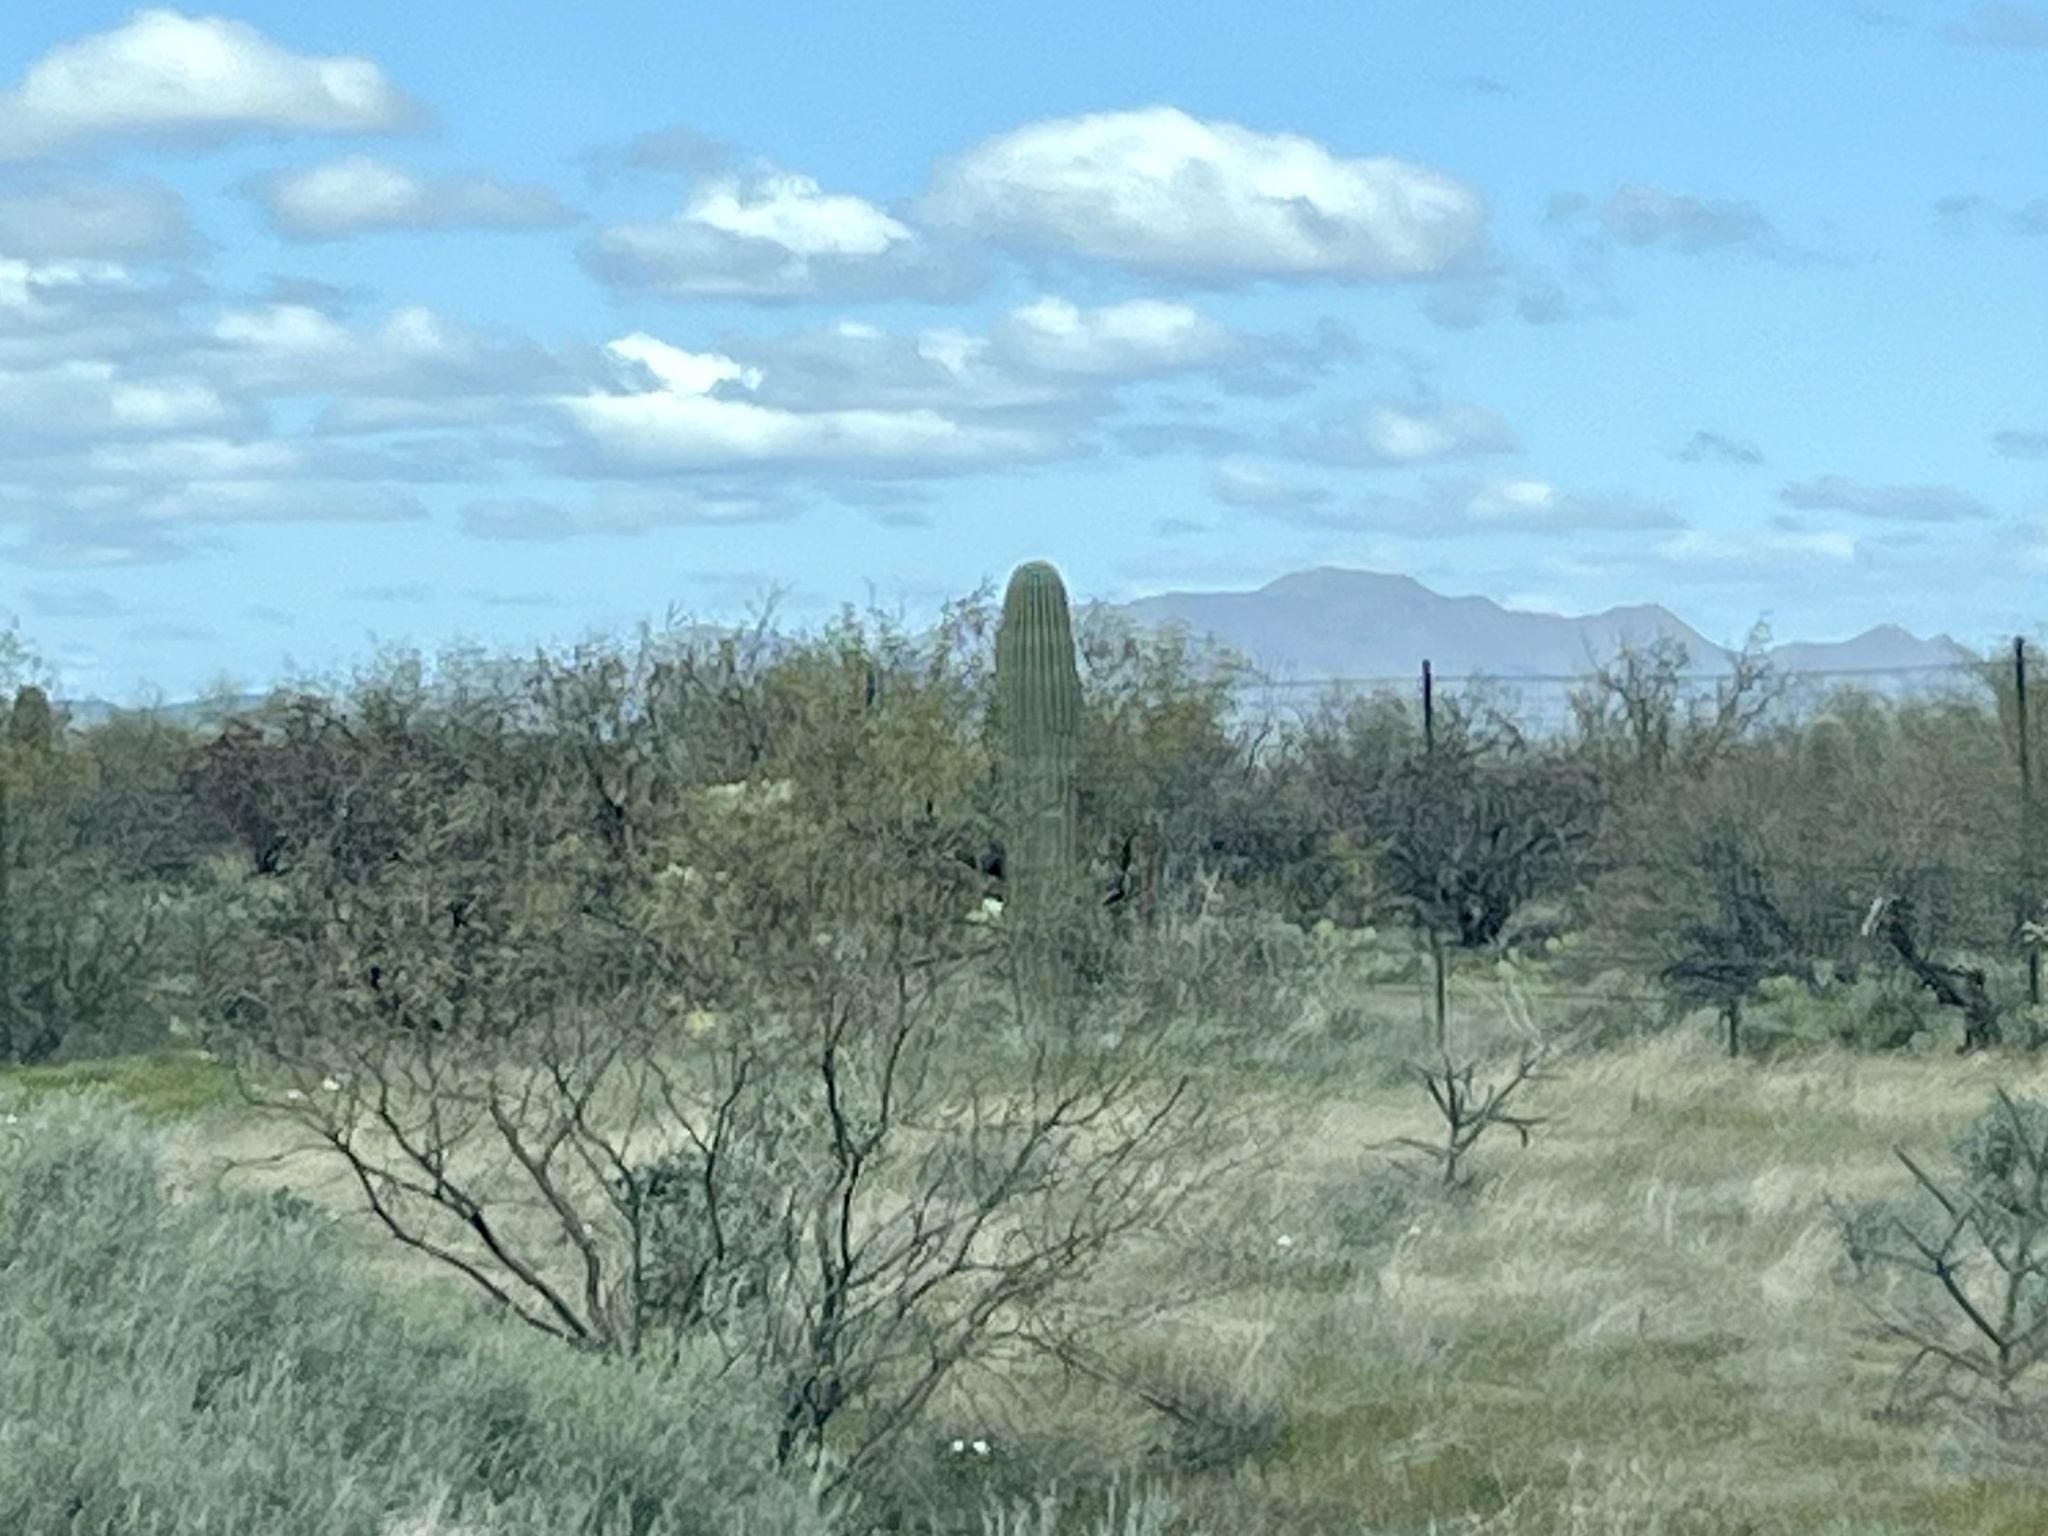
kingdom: Plantae
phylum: Tracheophyta
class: Magnoliopsida
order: Caryophyllales
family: Cactaceae
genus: Carnegiea
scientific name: Carnegiea gigantea
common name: Saguaro
